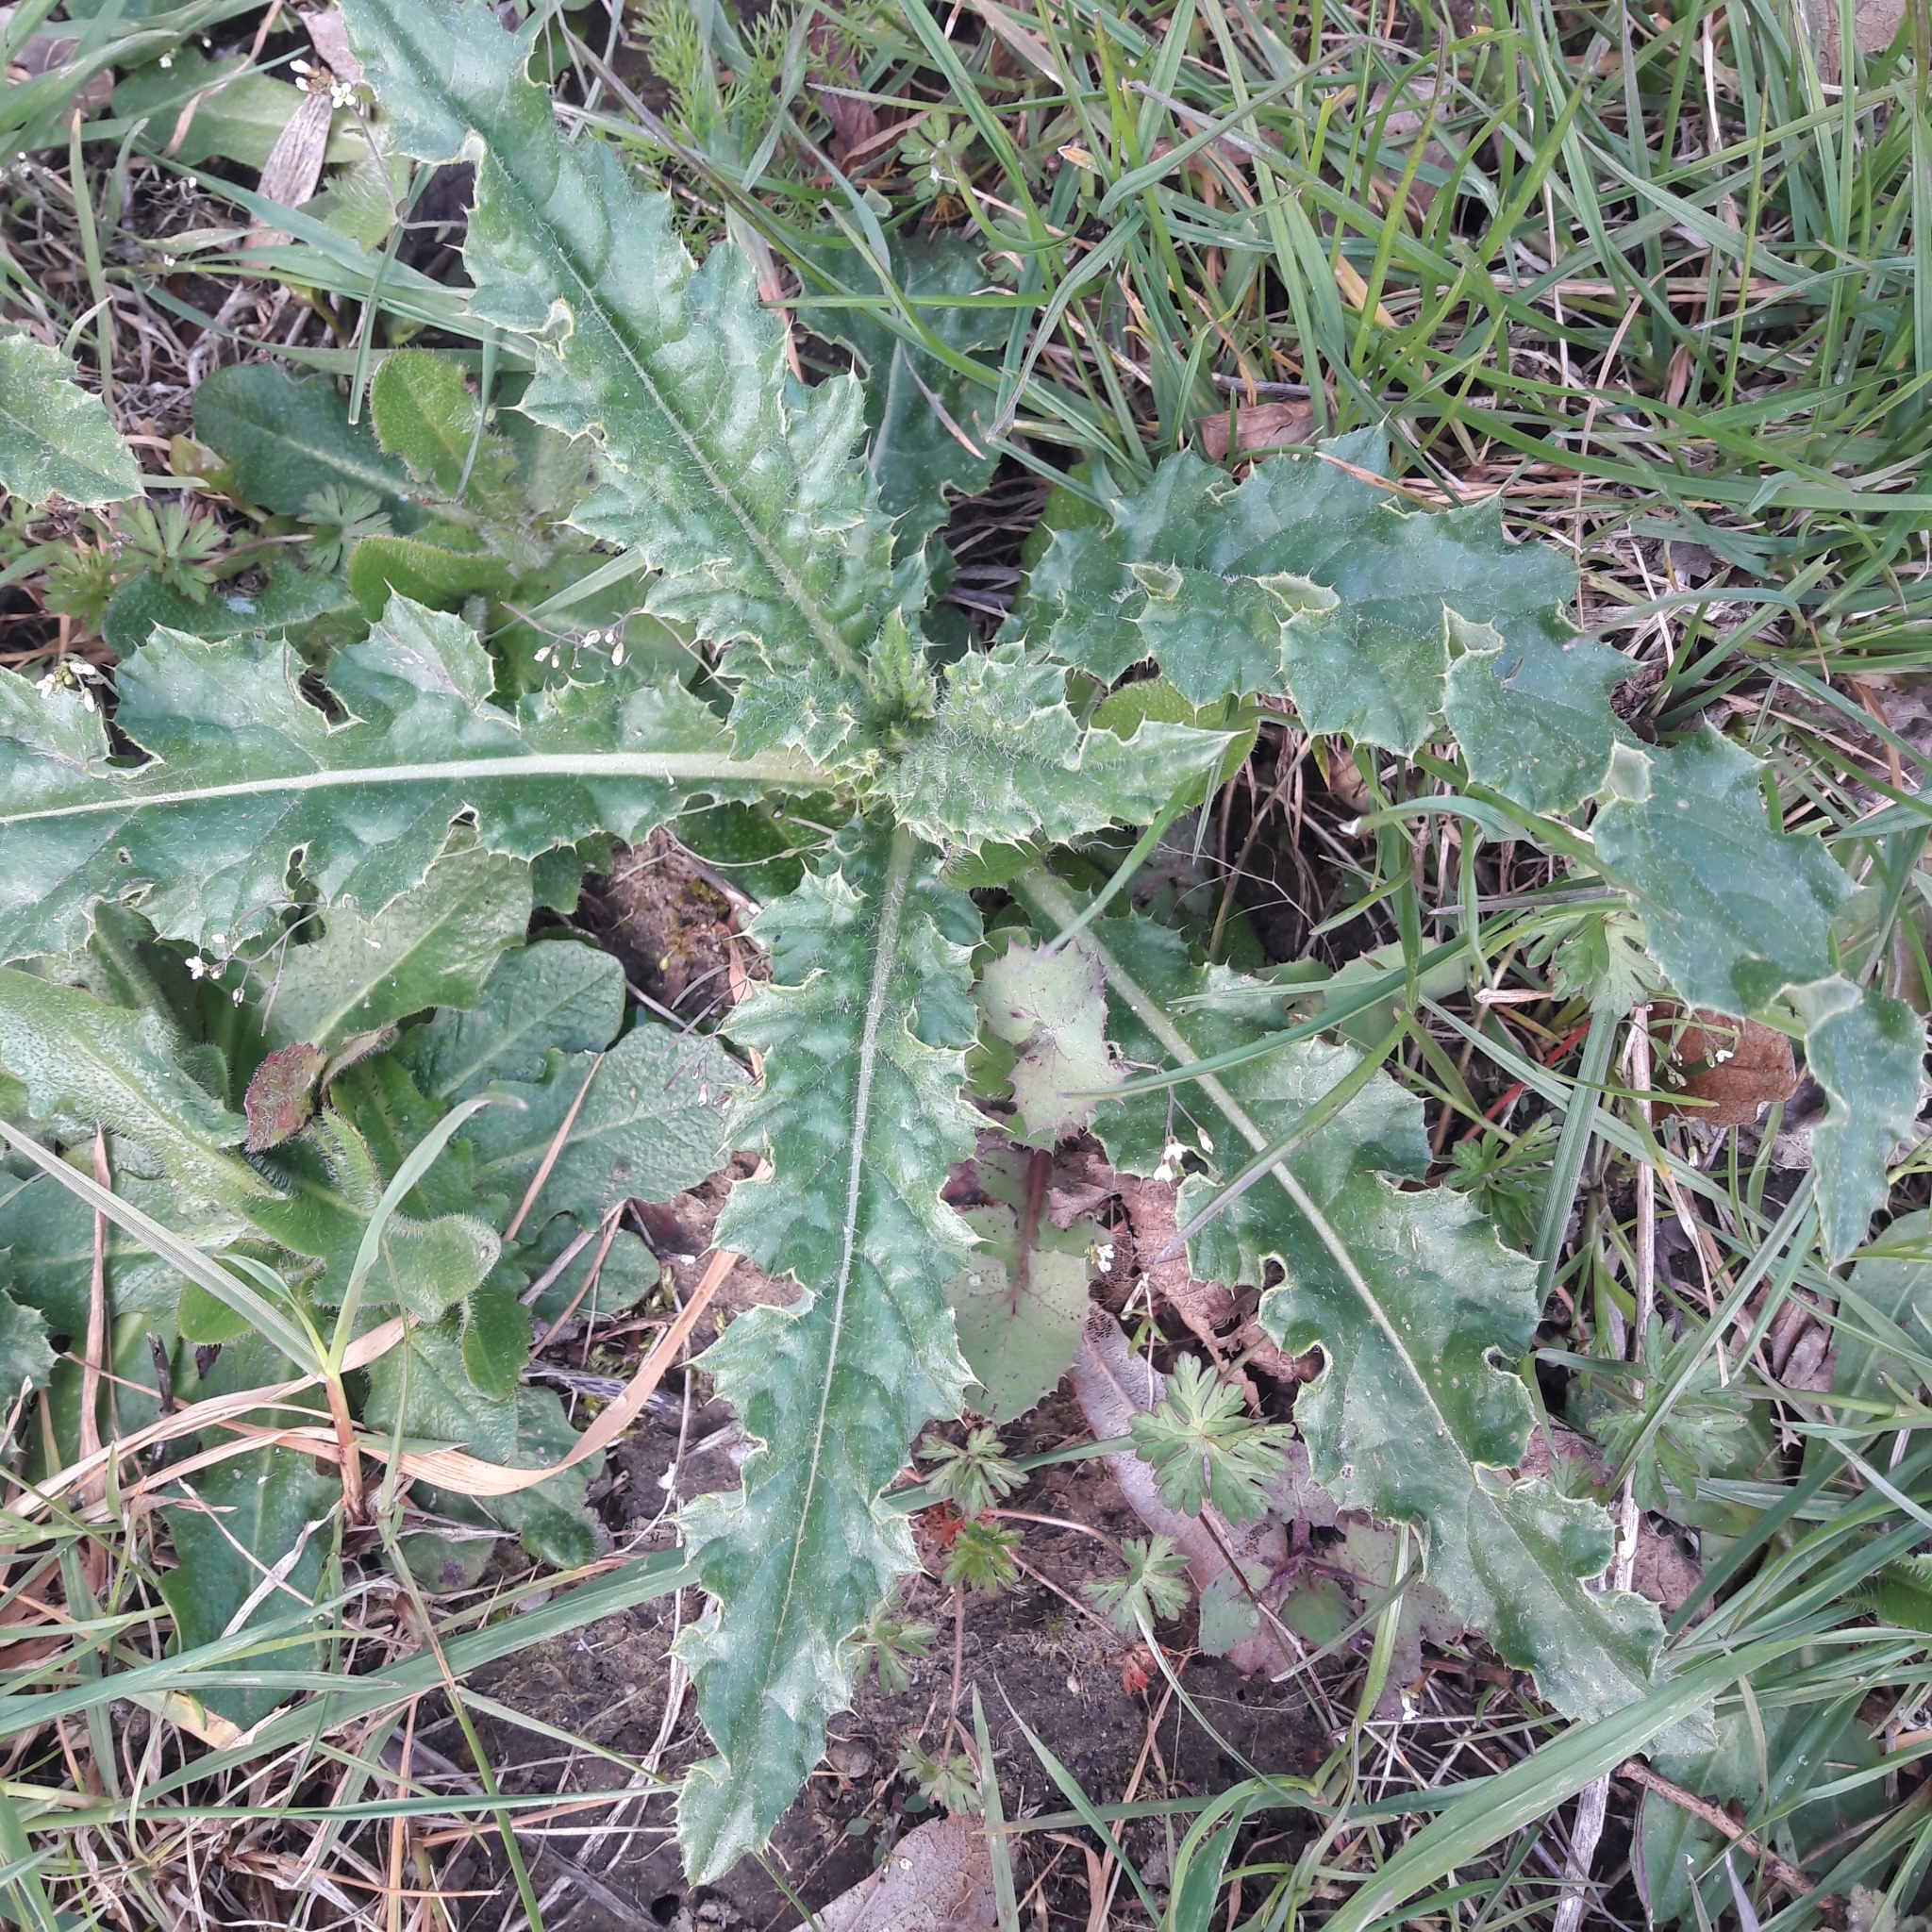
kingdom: Plantae
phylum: Tracheophyta
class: Magnoliopsida
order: Asterales
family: Asteraceae
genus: Cirsium
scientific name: Cirsium arvense
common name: Creeping thistle
